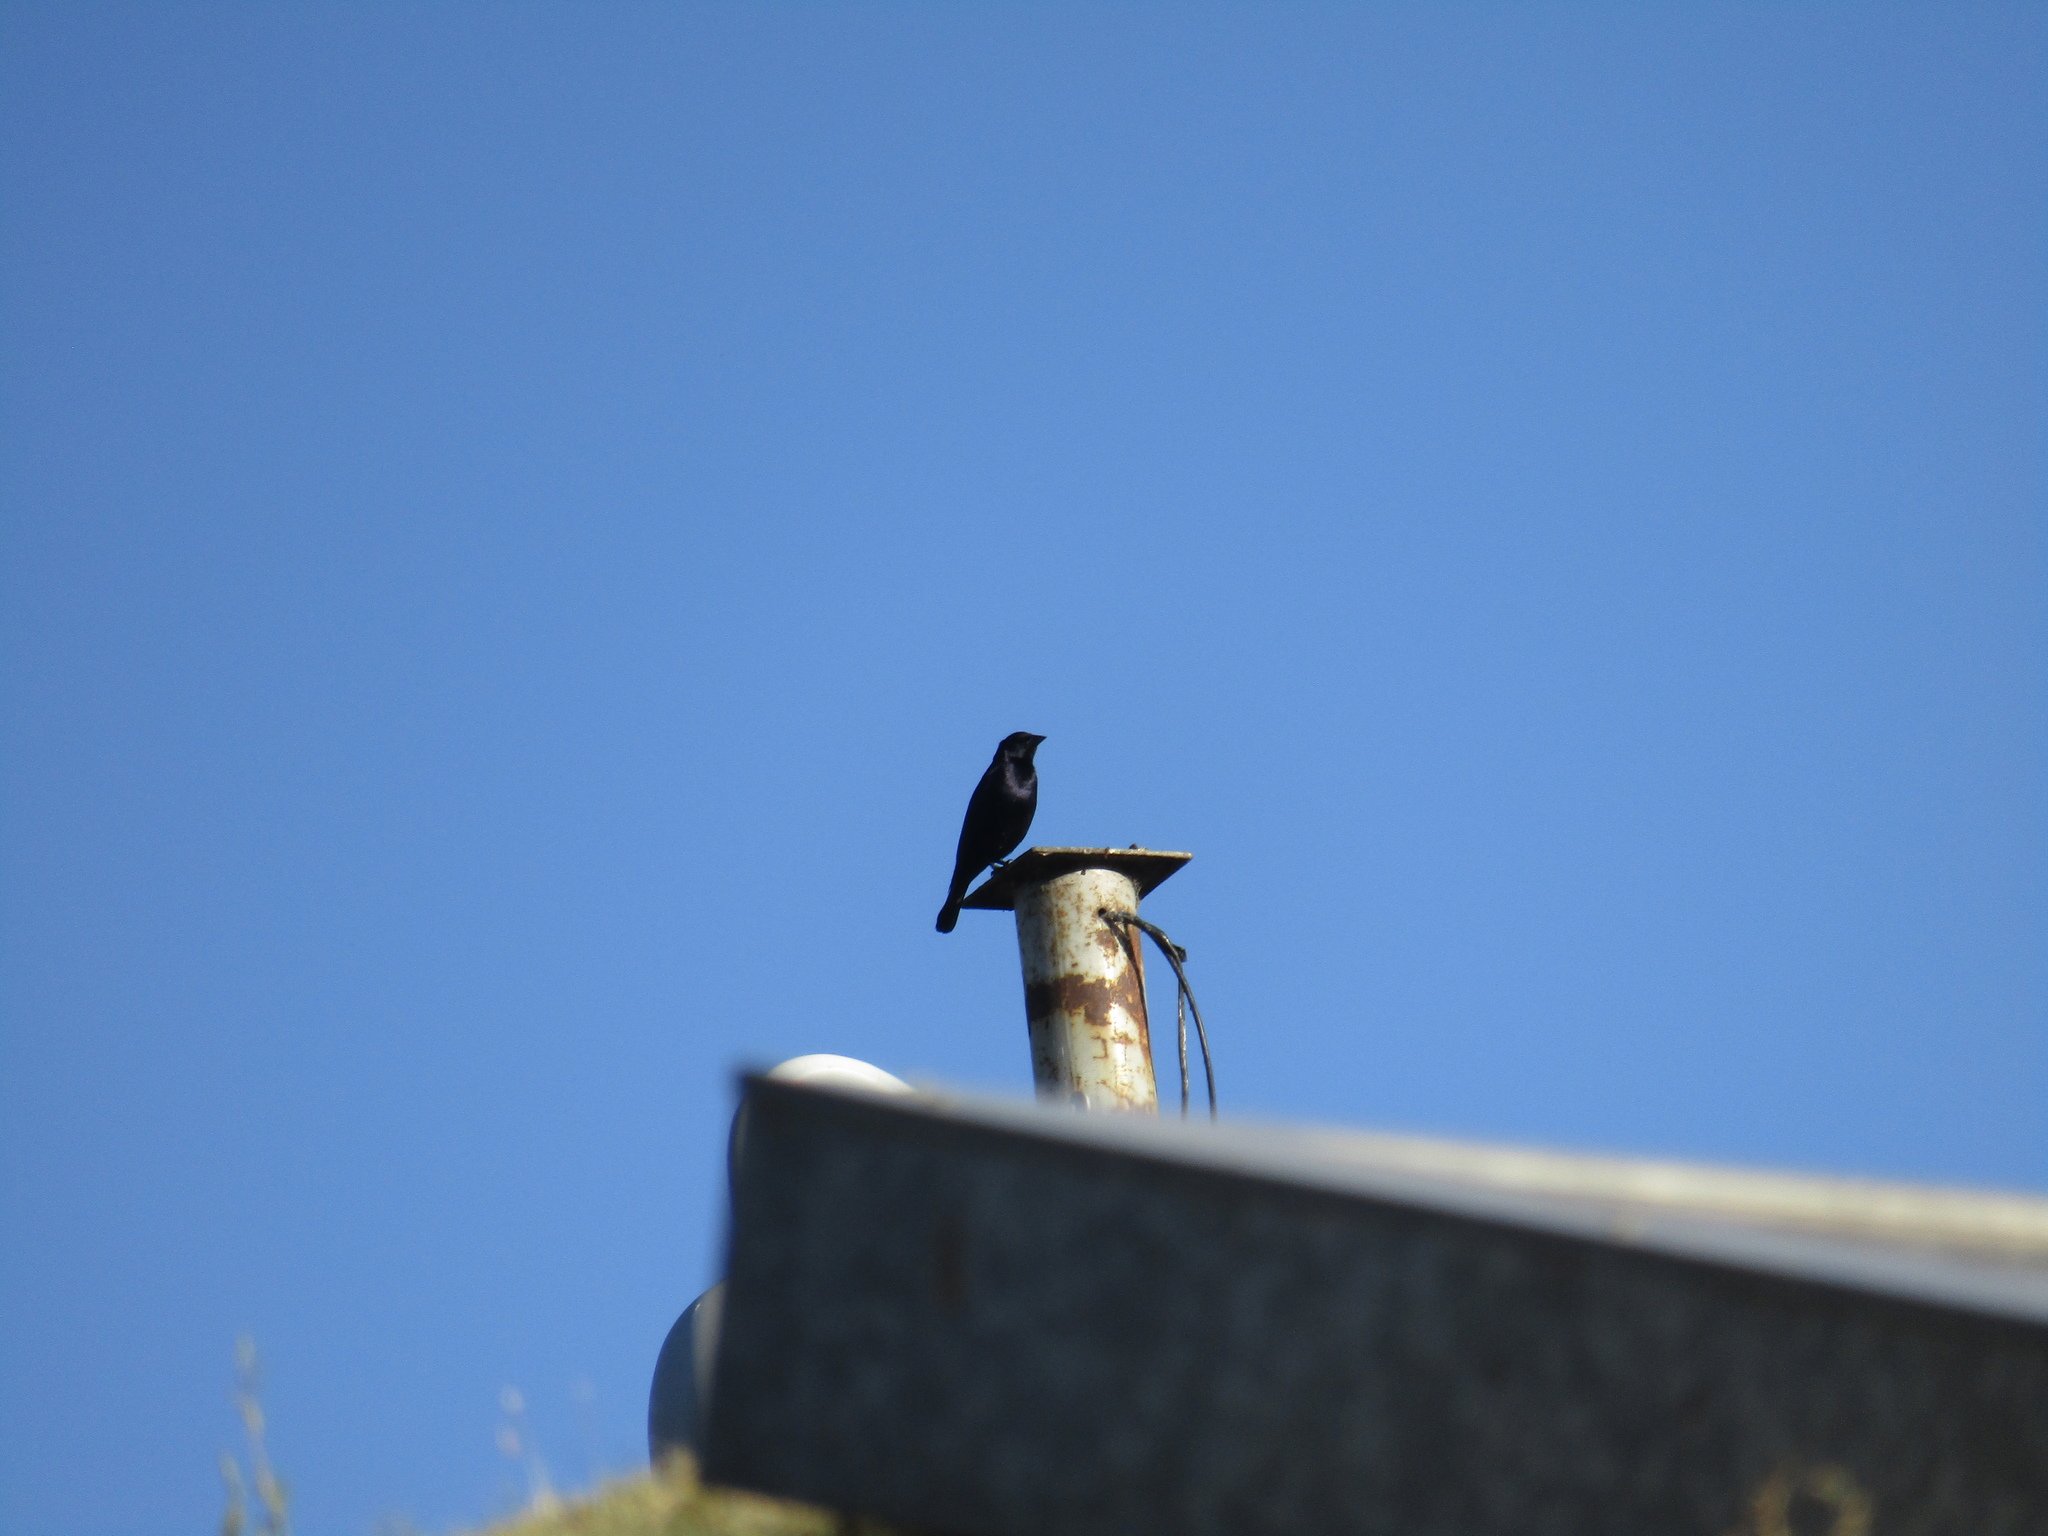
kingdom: Animalia
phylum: Chordata
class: Aves
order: Passeriformes
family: Icteridae
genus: Molothrus
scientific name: Molothrus bonariensis
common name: Shiny cowbird
